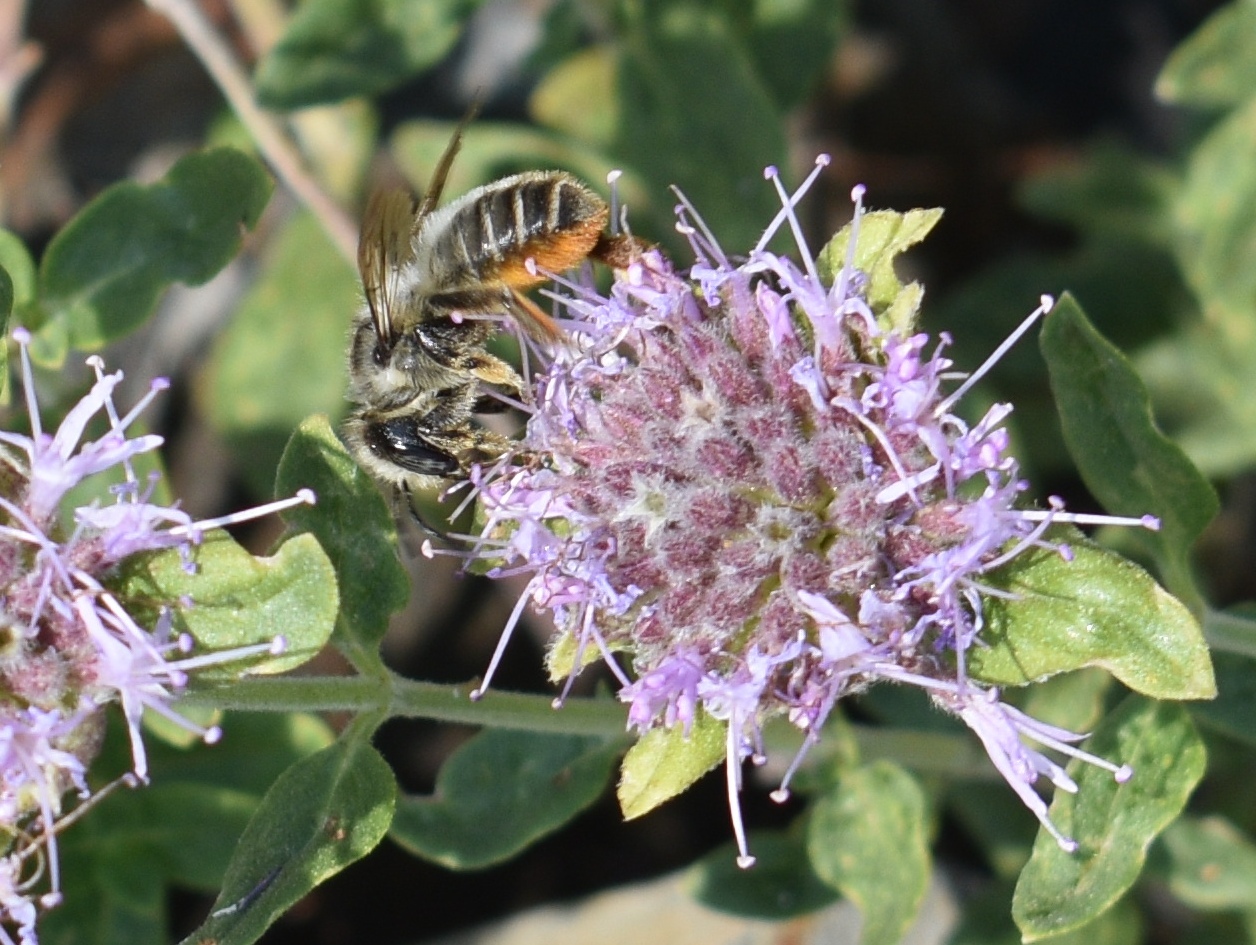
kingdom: Animalia
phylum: Arthropoda
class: Insecta
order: Hymenoptera
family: Megachilidae
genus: Xanthosarus
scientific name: Xanthosarus
